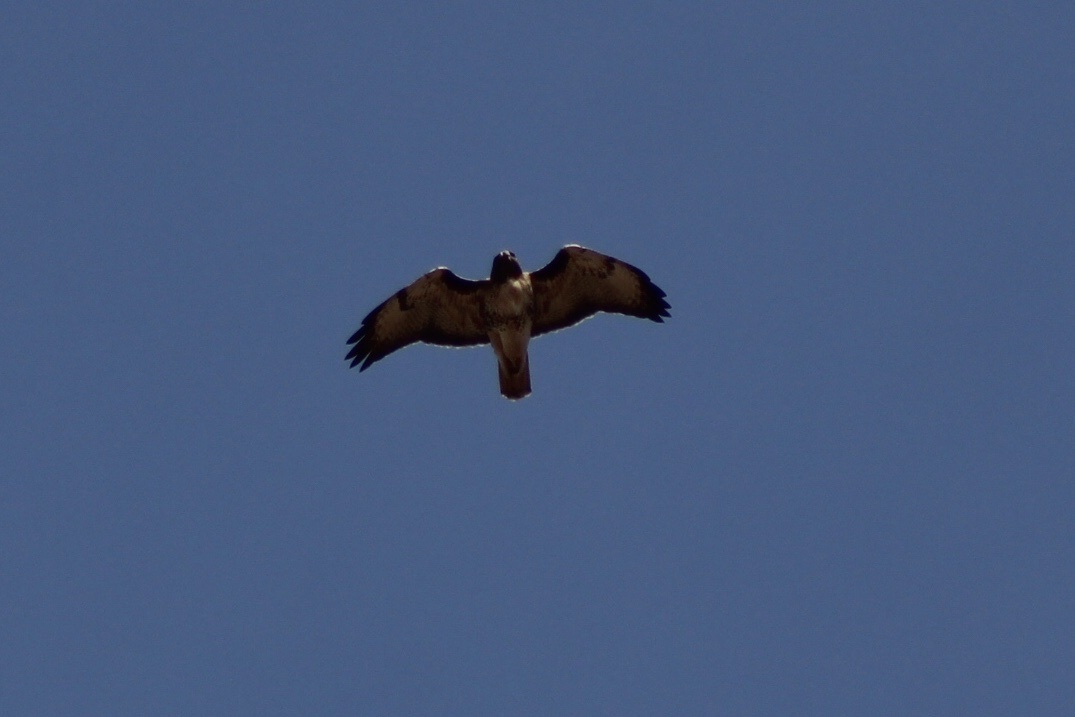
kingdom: Animalia
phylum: Chordata
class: Aves
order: Accipitriformes
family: Accipitridae
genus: Buteo
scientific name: Buteo jamaicensis
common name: Red-tailed hawk
